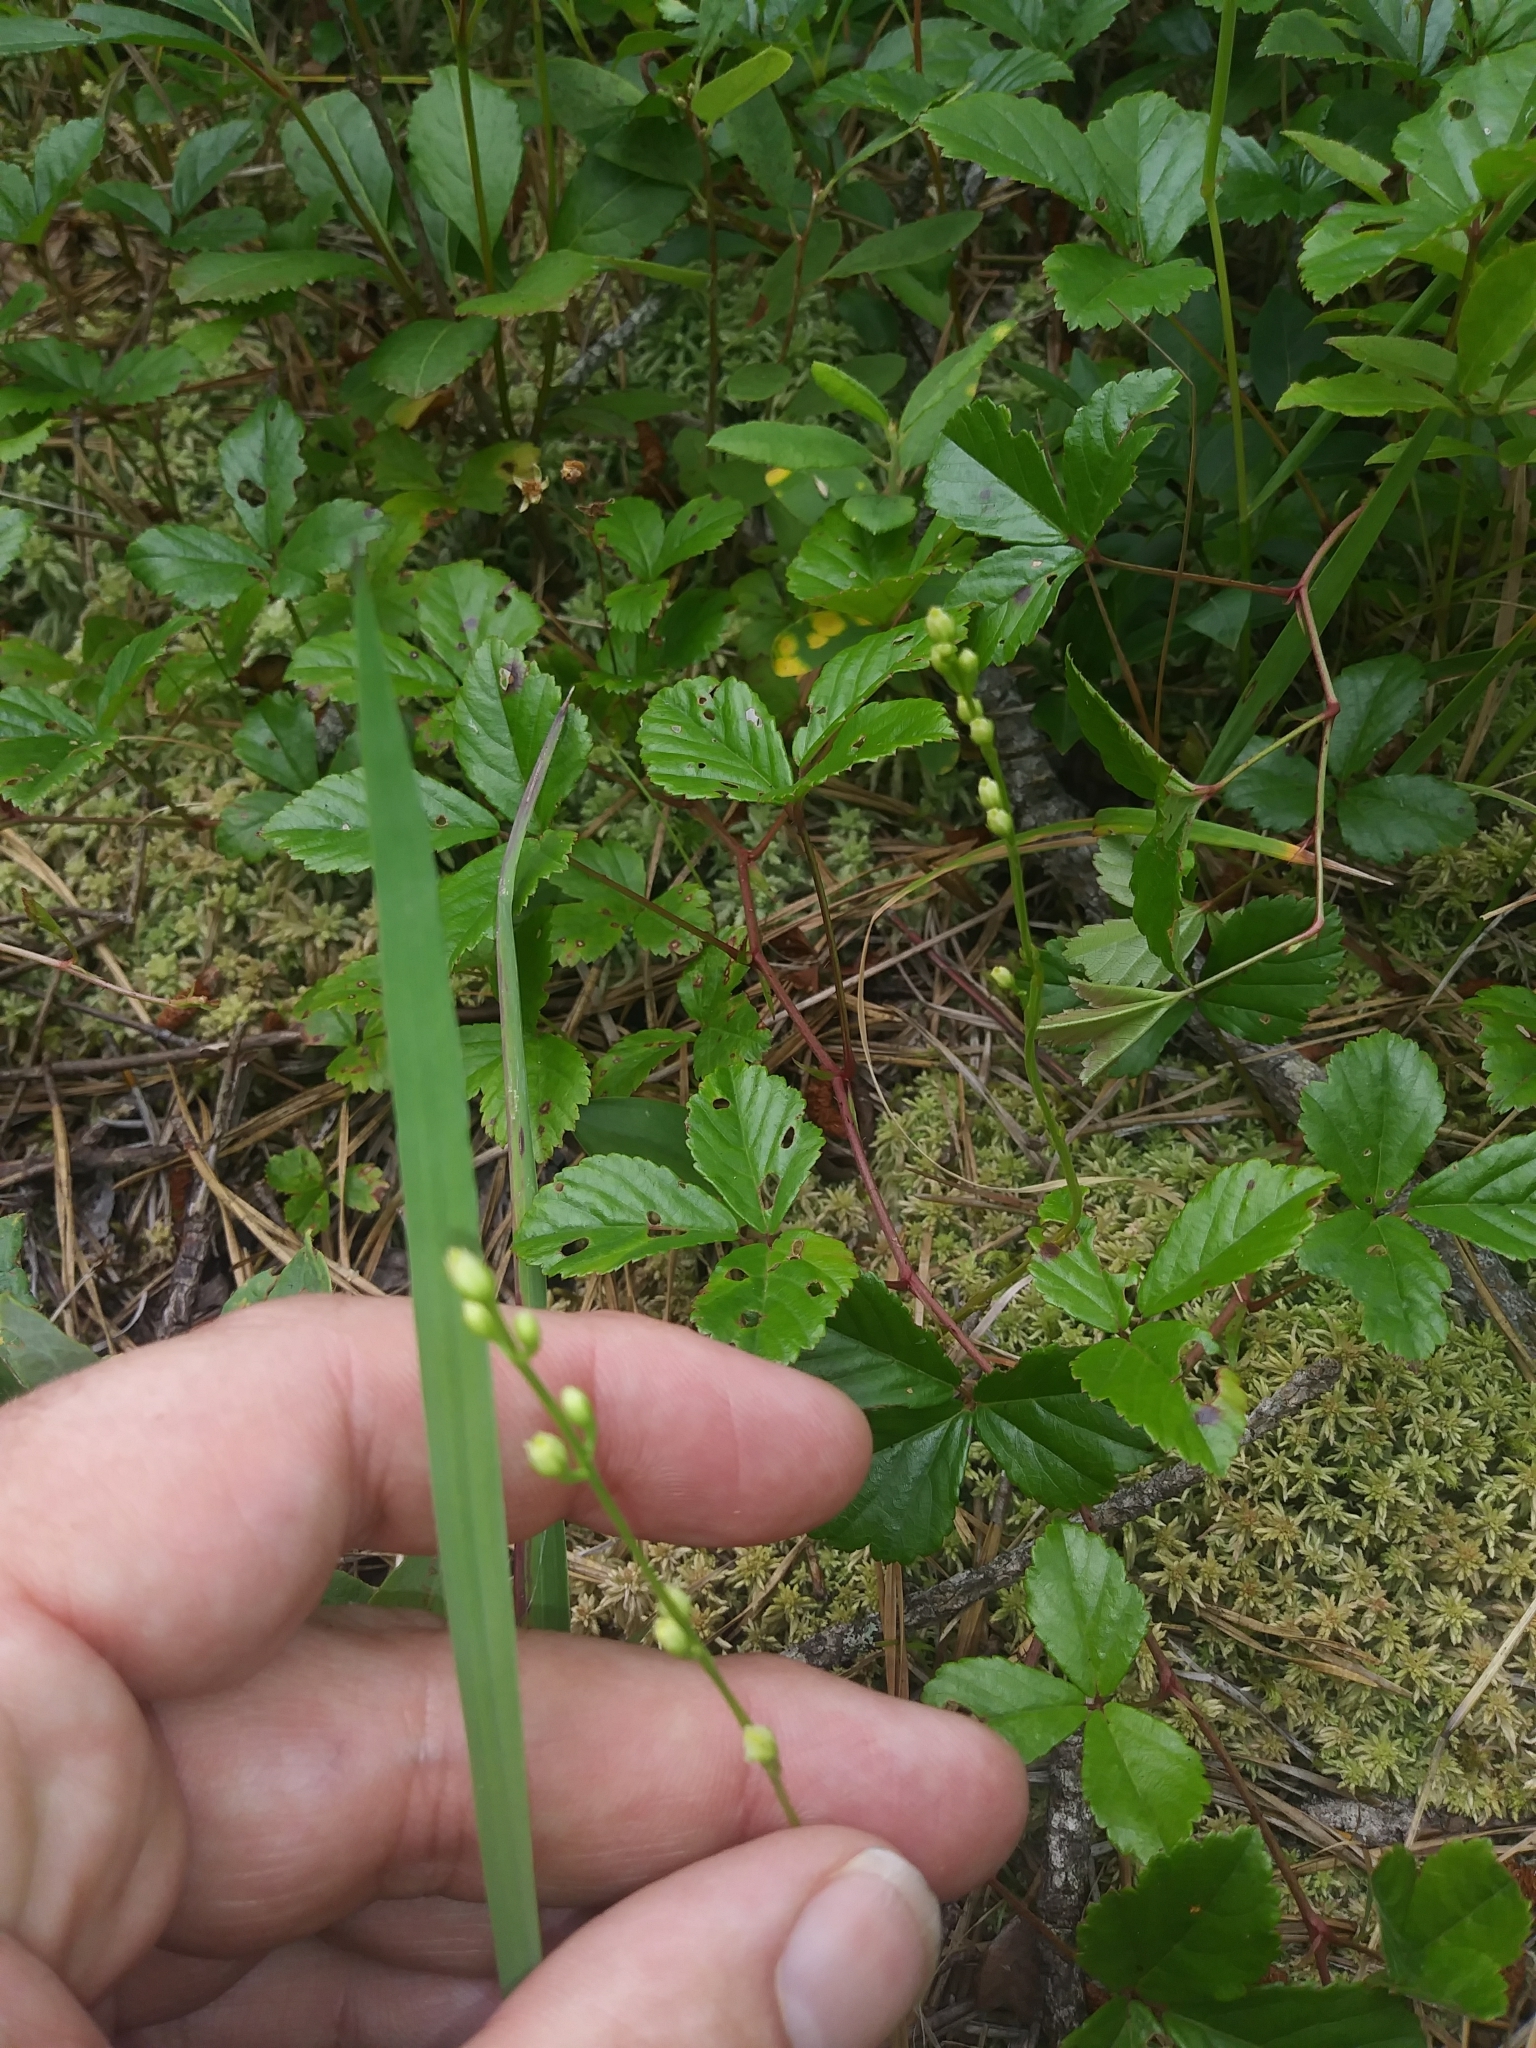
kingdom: Plantae
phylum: Tracheophyta
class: Magnoliopsida
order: Gentianales
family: Gentianaceae
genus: Bartonia
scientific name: Bartonia virginica
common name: Yellow bartonia
